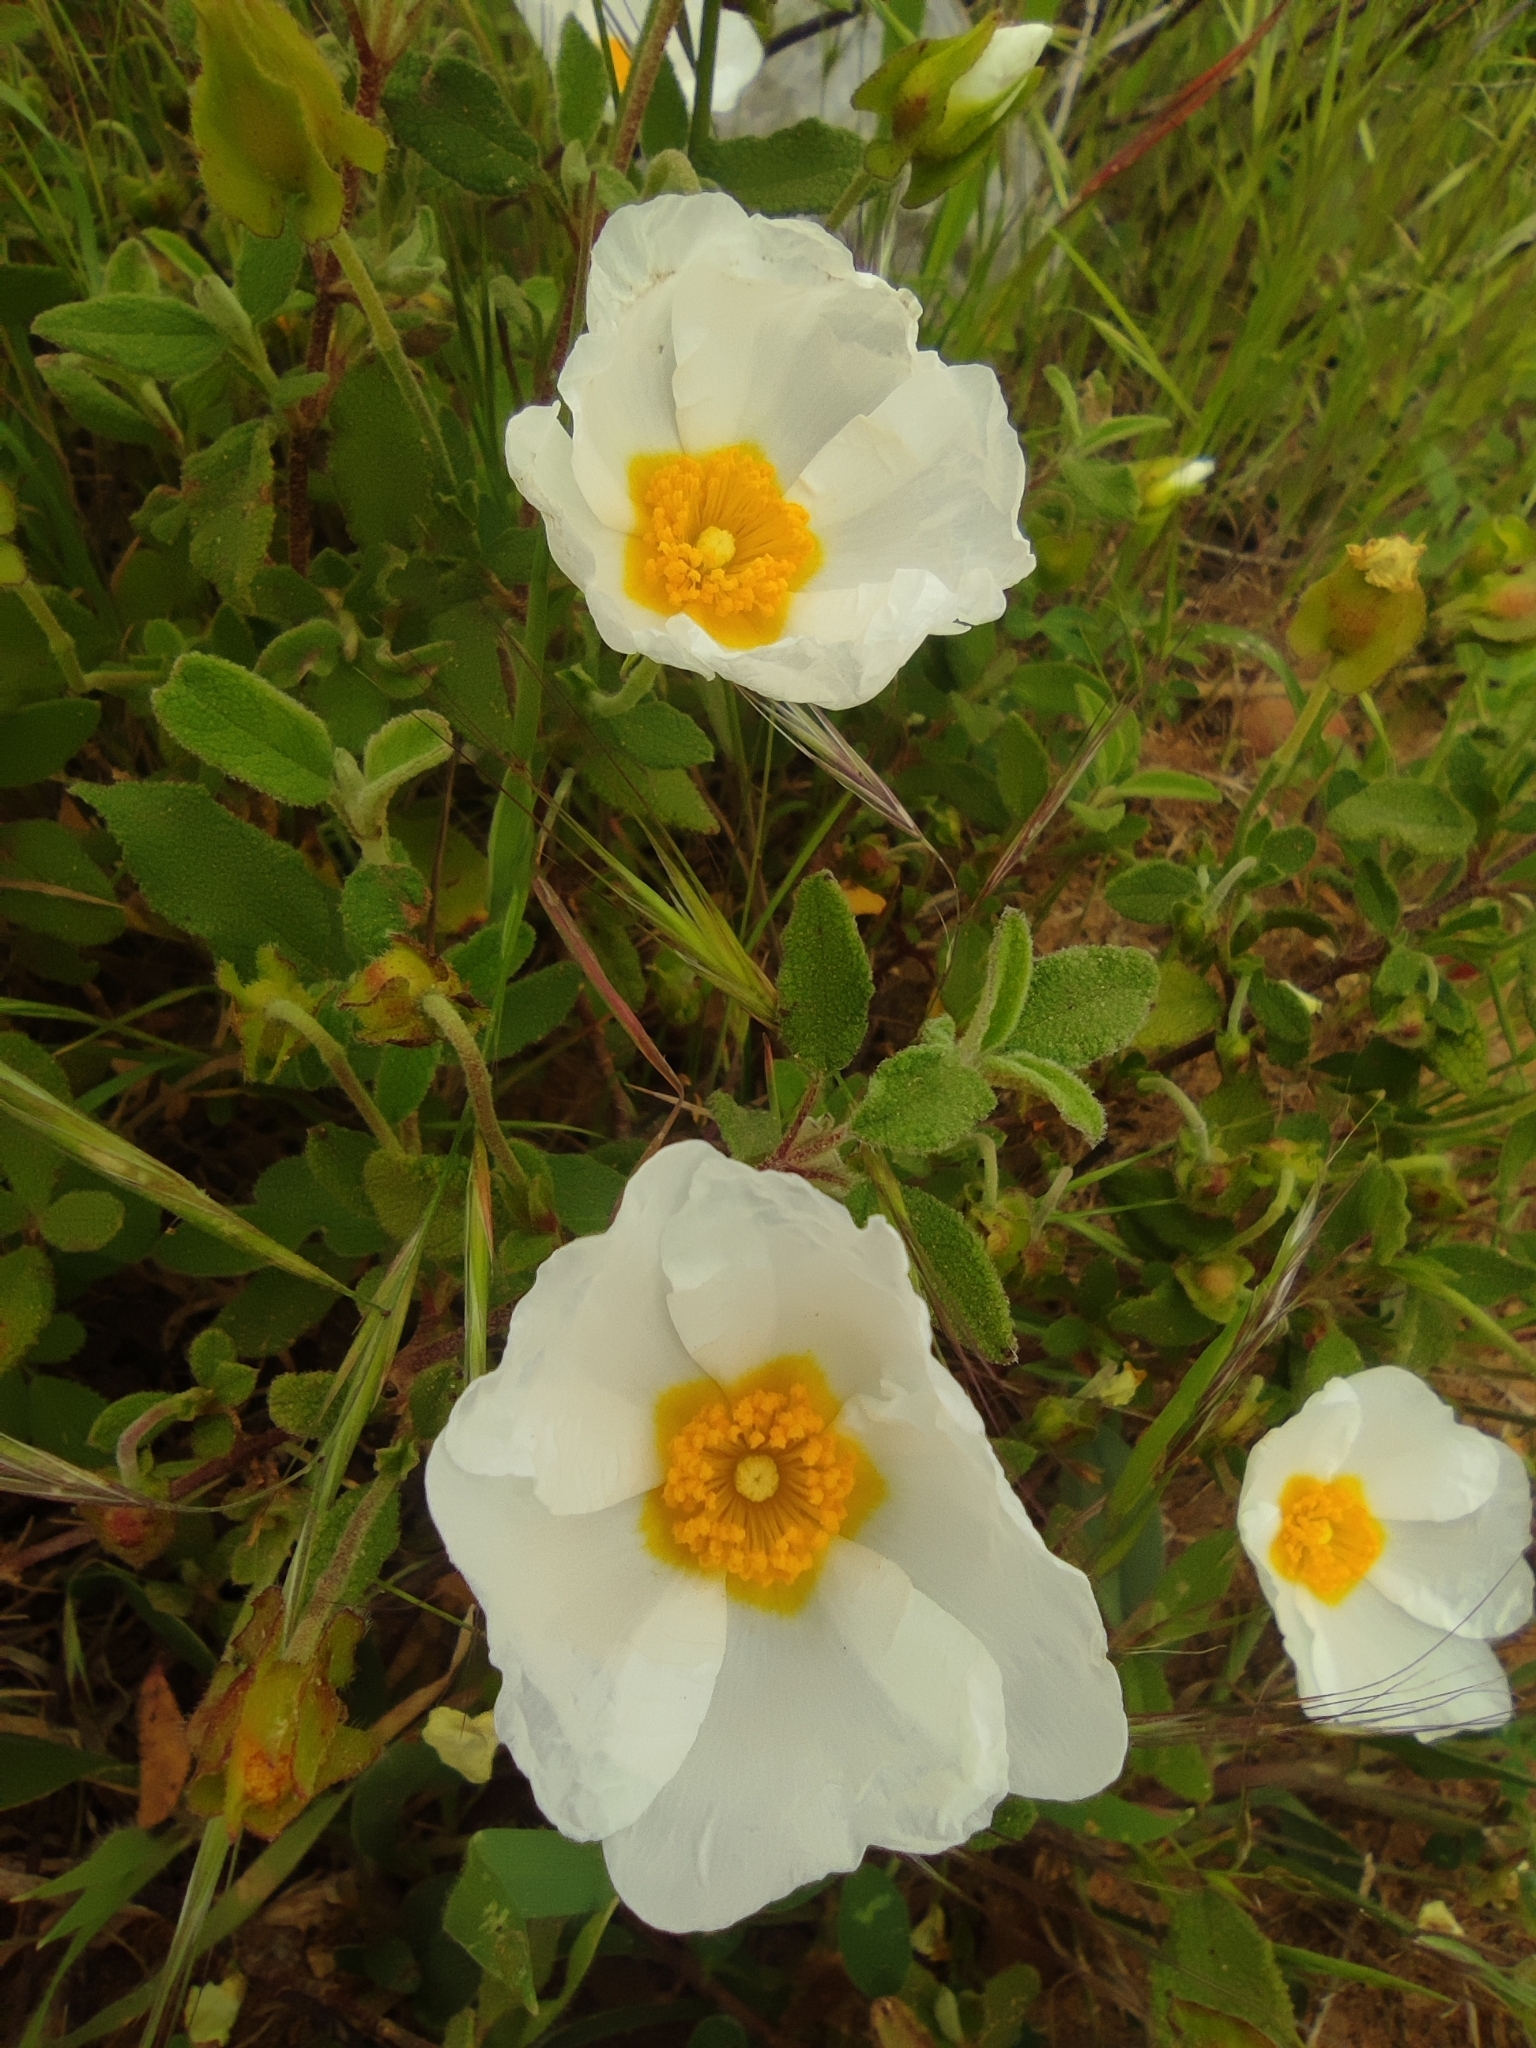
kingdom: Plantae
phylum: Tracheophyta
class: Magnoliopsida
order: Malvales
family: Cistaceae
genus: Cistus
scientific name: Cistus salviifolius
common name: Salvia cistus
